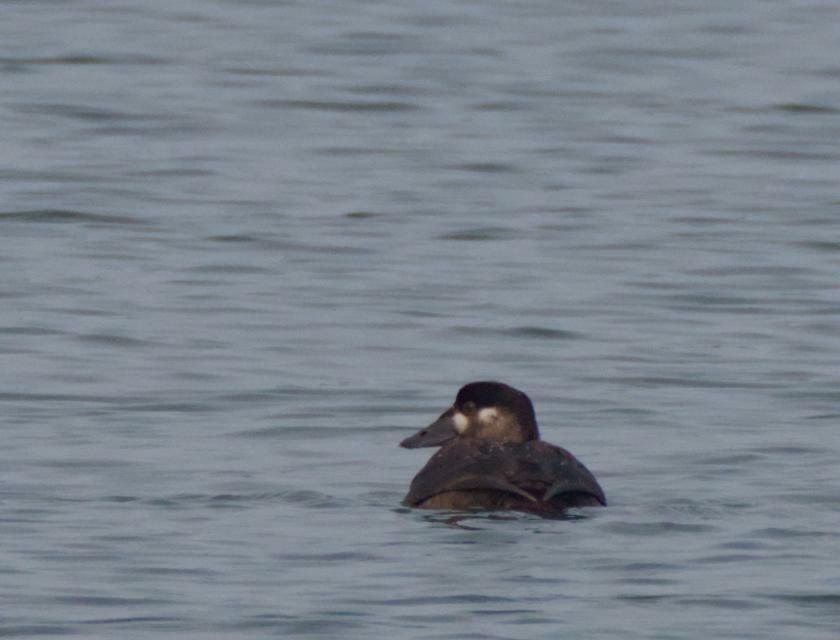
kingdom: Animalia
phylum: Chordata
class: Aves
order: Anseriformes
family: Anatidae
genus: Melanitta
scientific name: Melanitta perspicillata
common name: Surf scoter
